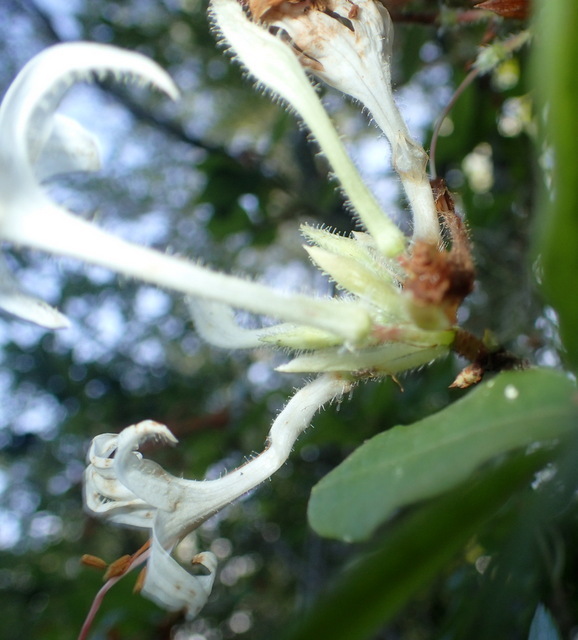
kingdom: Plantae
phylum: Tracheophyta
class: Magnoliopsida
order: Ericales
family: Ericaceae
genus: Rhododendron
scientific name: Rhododendron serrulatum
